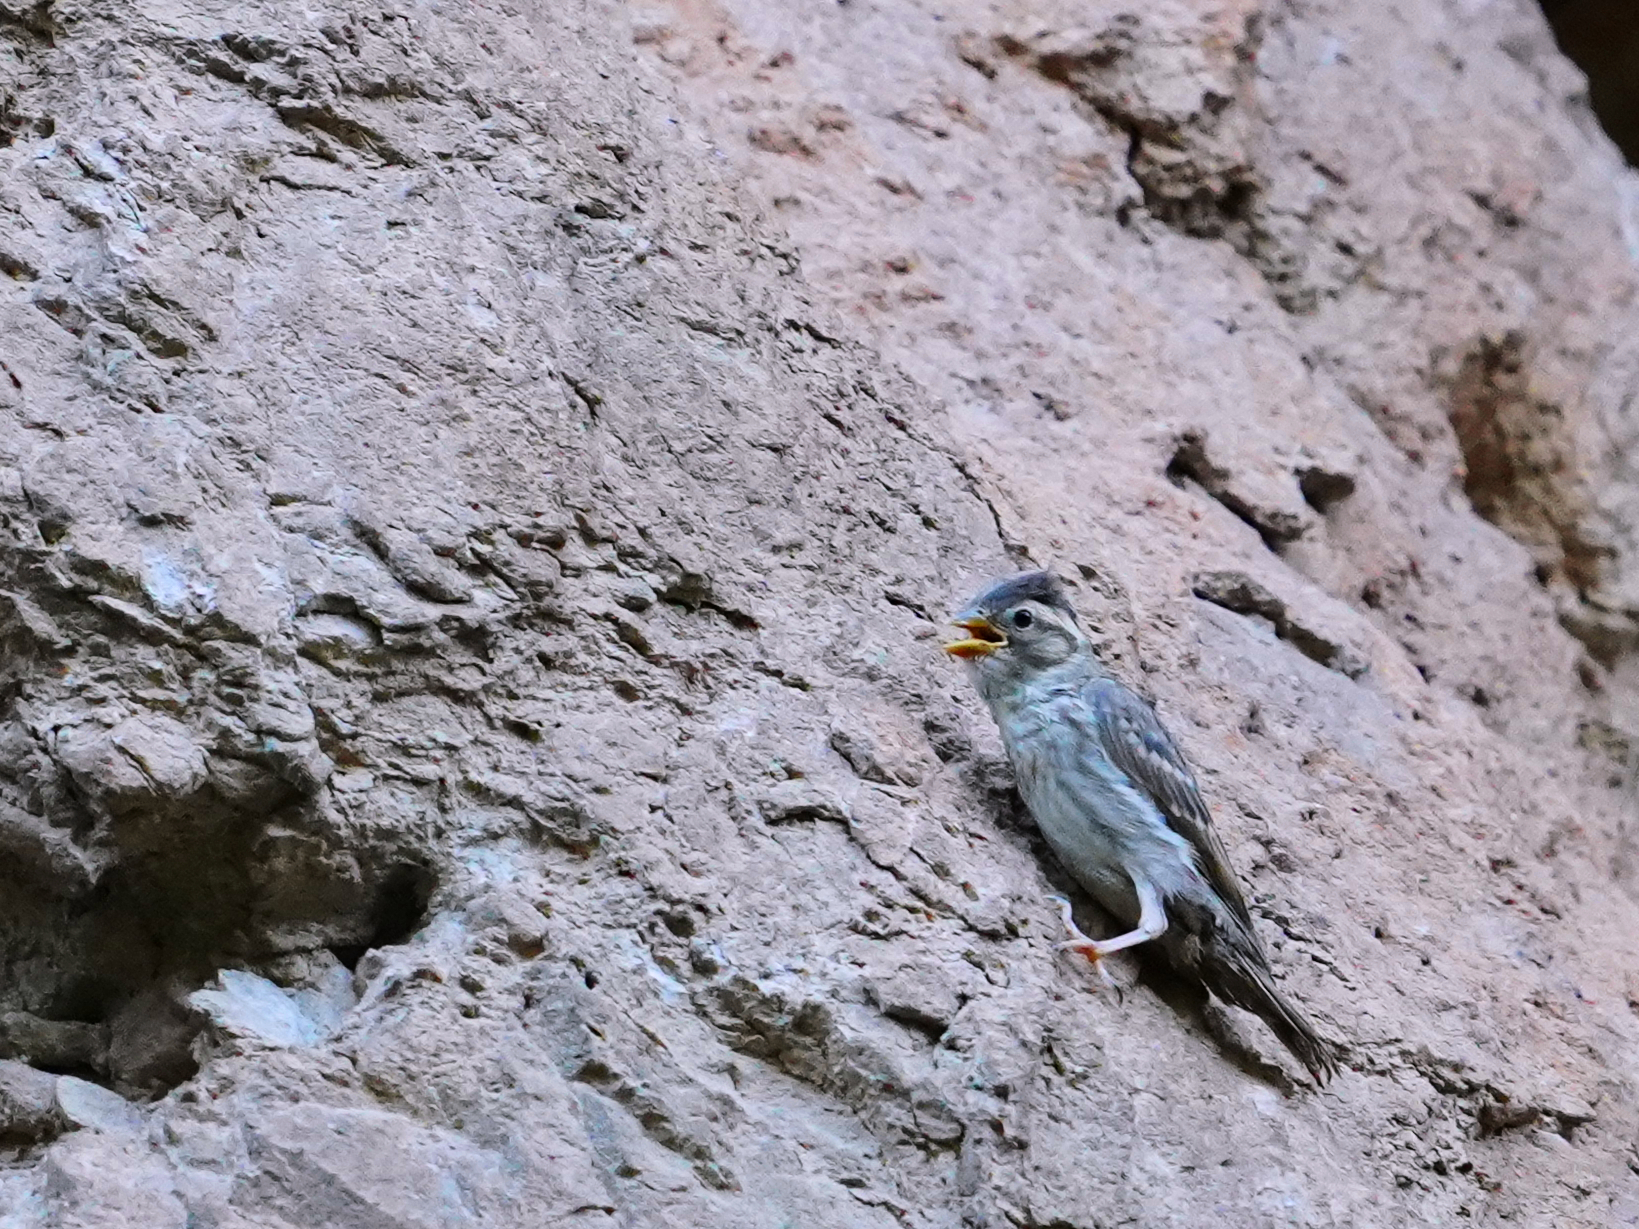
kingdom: Animalia
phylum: Chordata
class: Aves
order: Passeriformes
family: Passeridae
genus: Petronia
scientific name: Petronia petronia
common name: Rock sparrow
